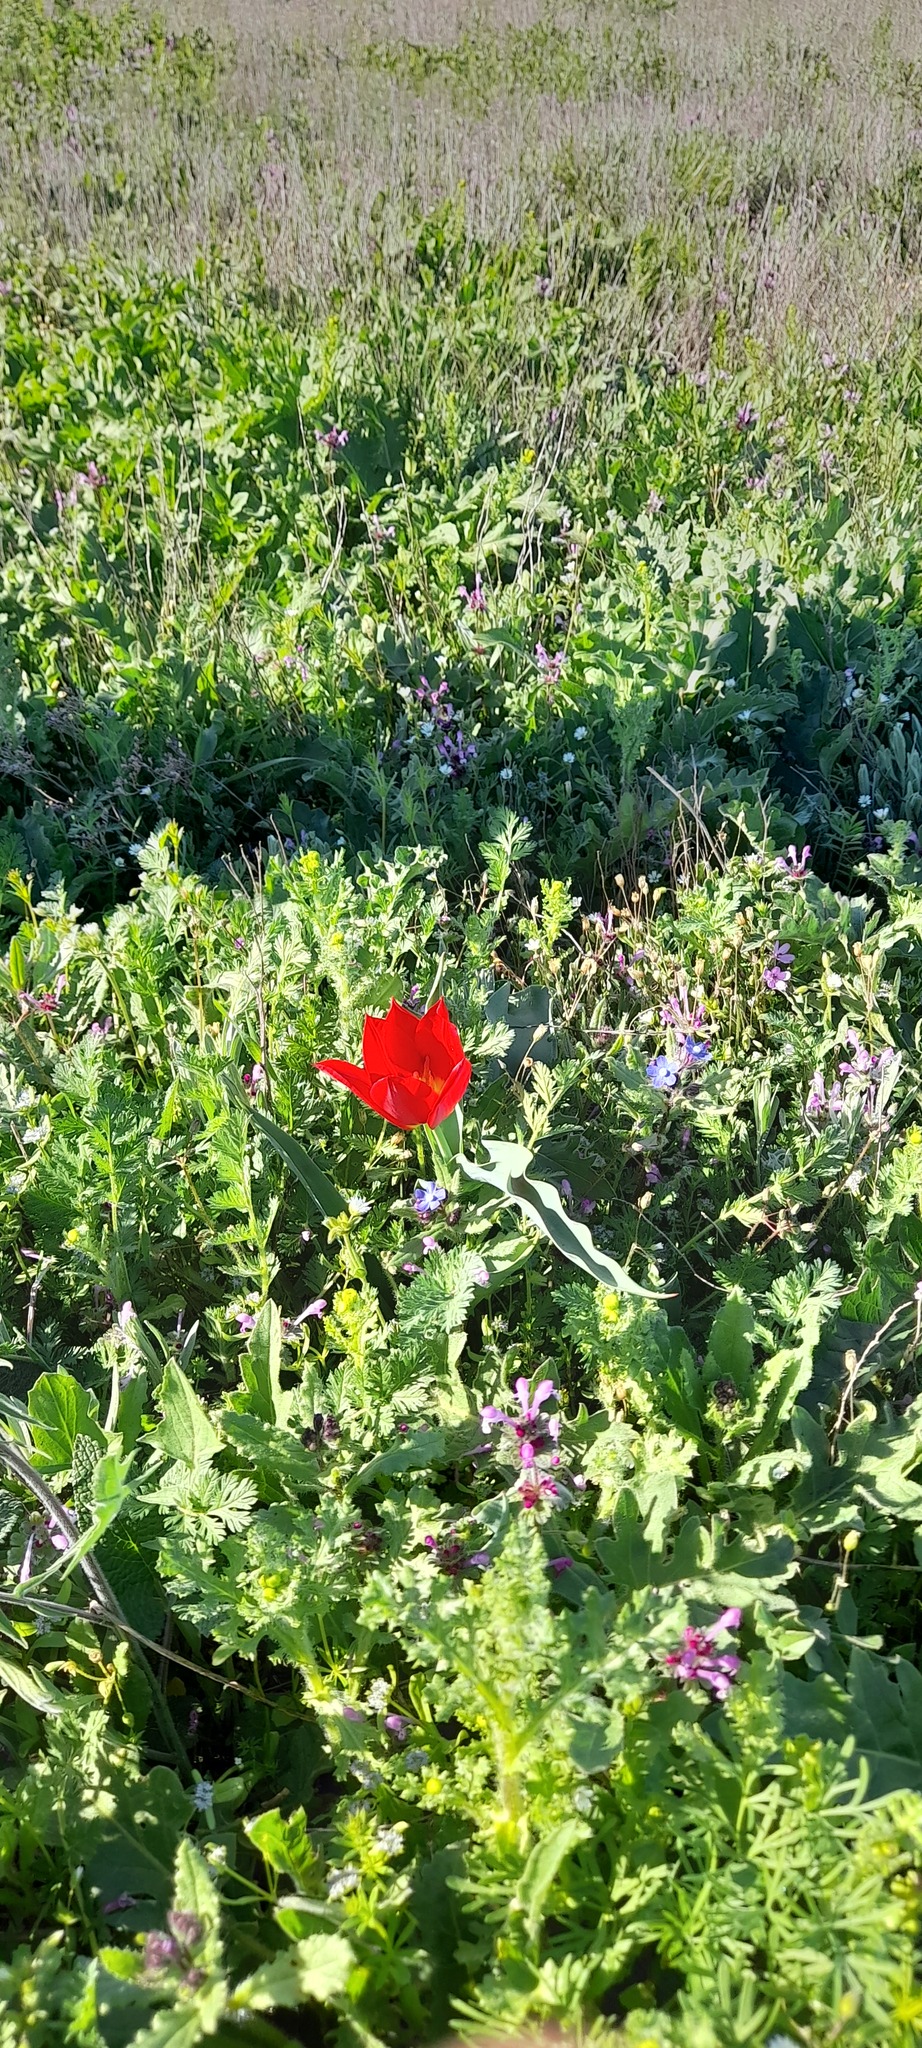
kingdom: Plantae
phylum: Tracheophyta
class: Liliopsida
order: Liliales
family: Liliaceae
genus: Tulipa
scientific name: Tulipa suaveolens
